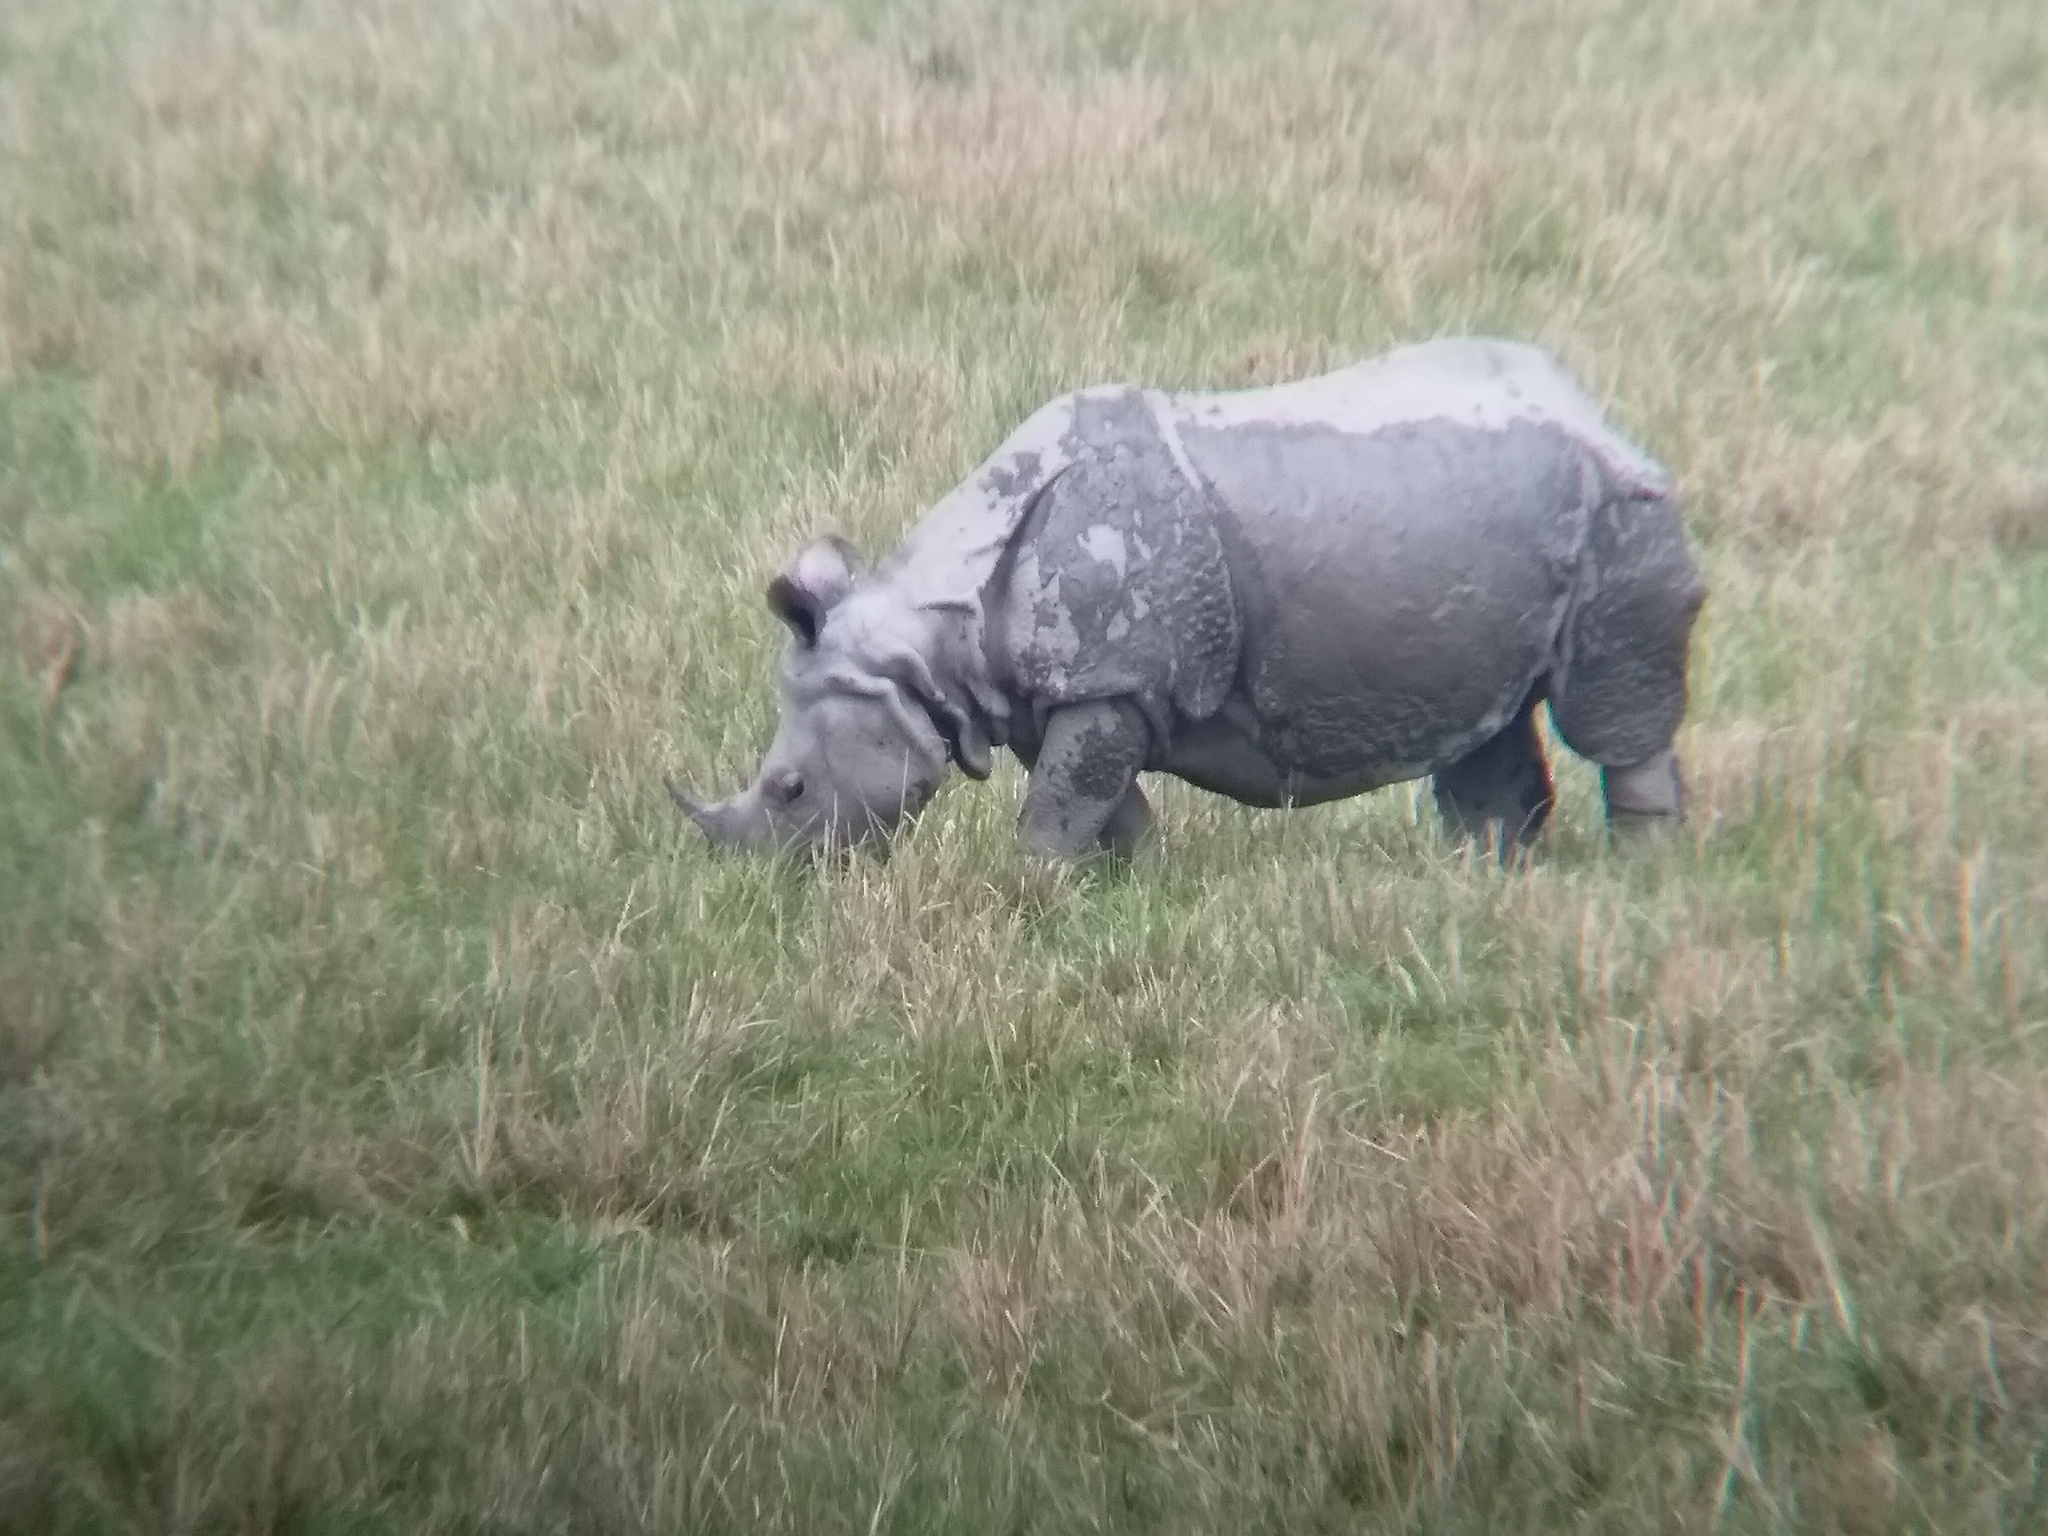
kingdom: Animalia
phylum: Chordata
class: Mammalia
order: Perissodactyla
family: Rhinocerotidae
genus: Rhinoceros
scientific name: Rhinoceros unicornis
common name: Indian rhinoceros
